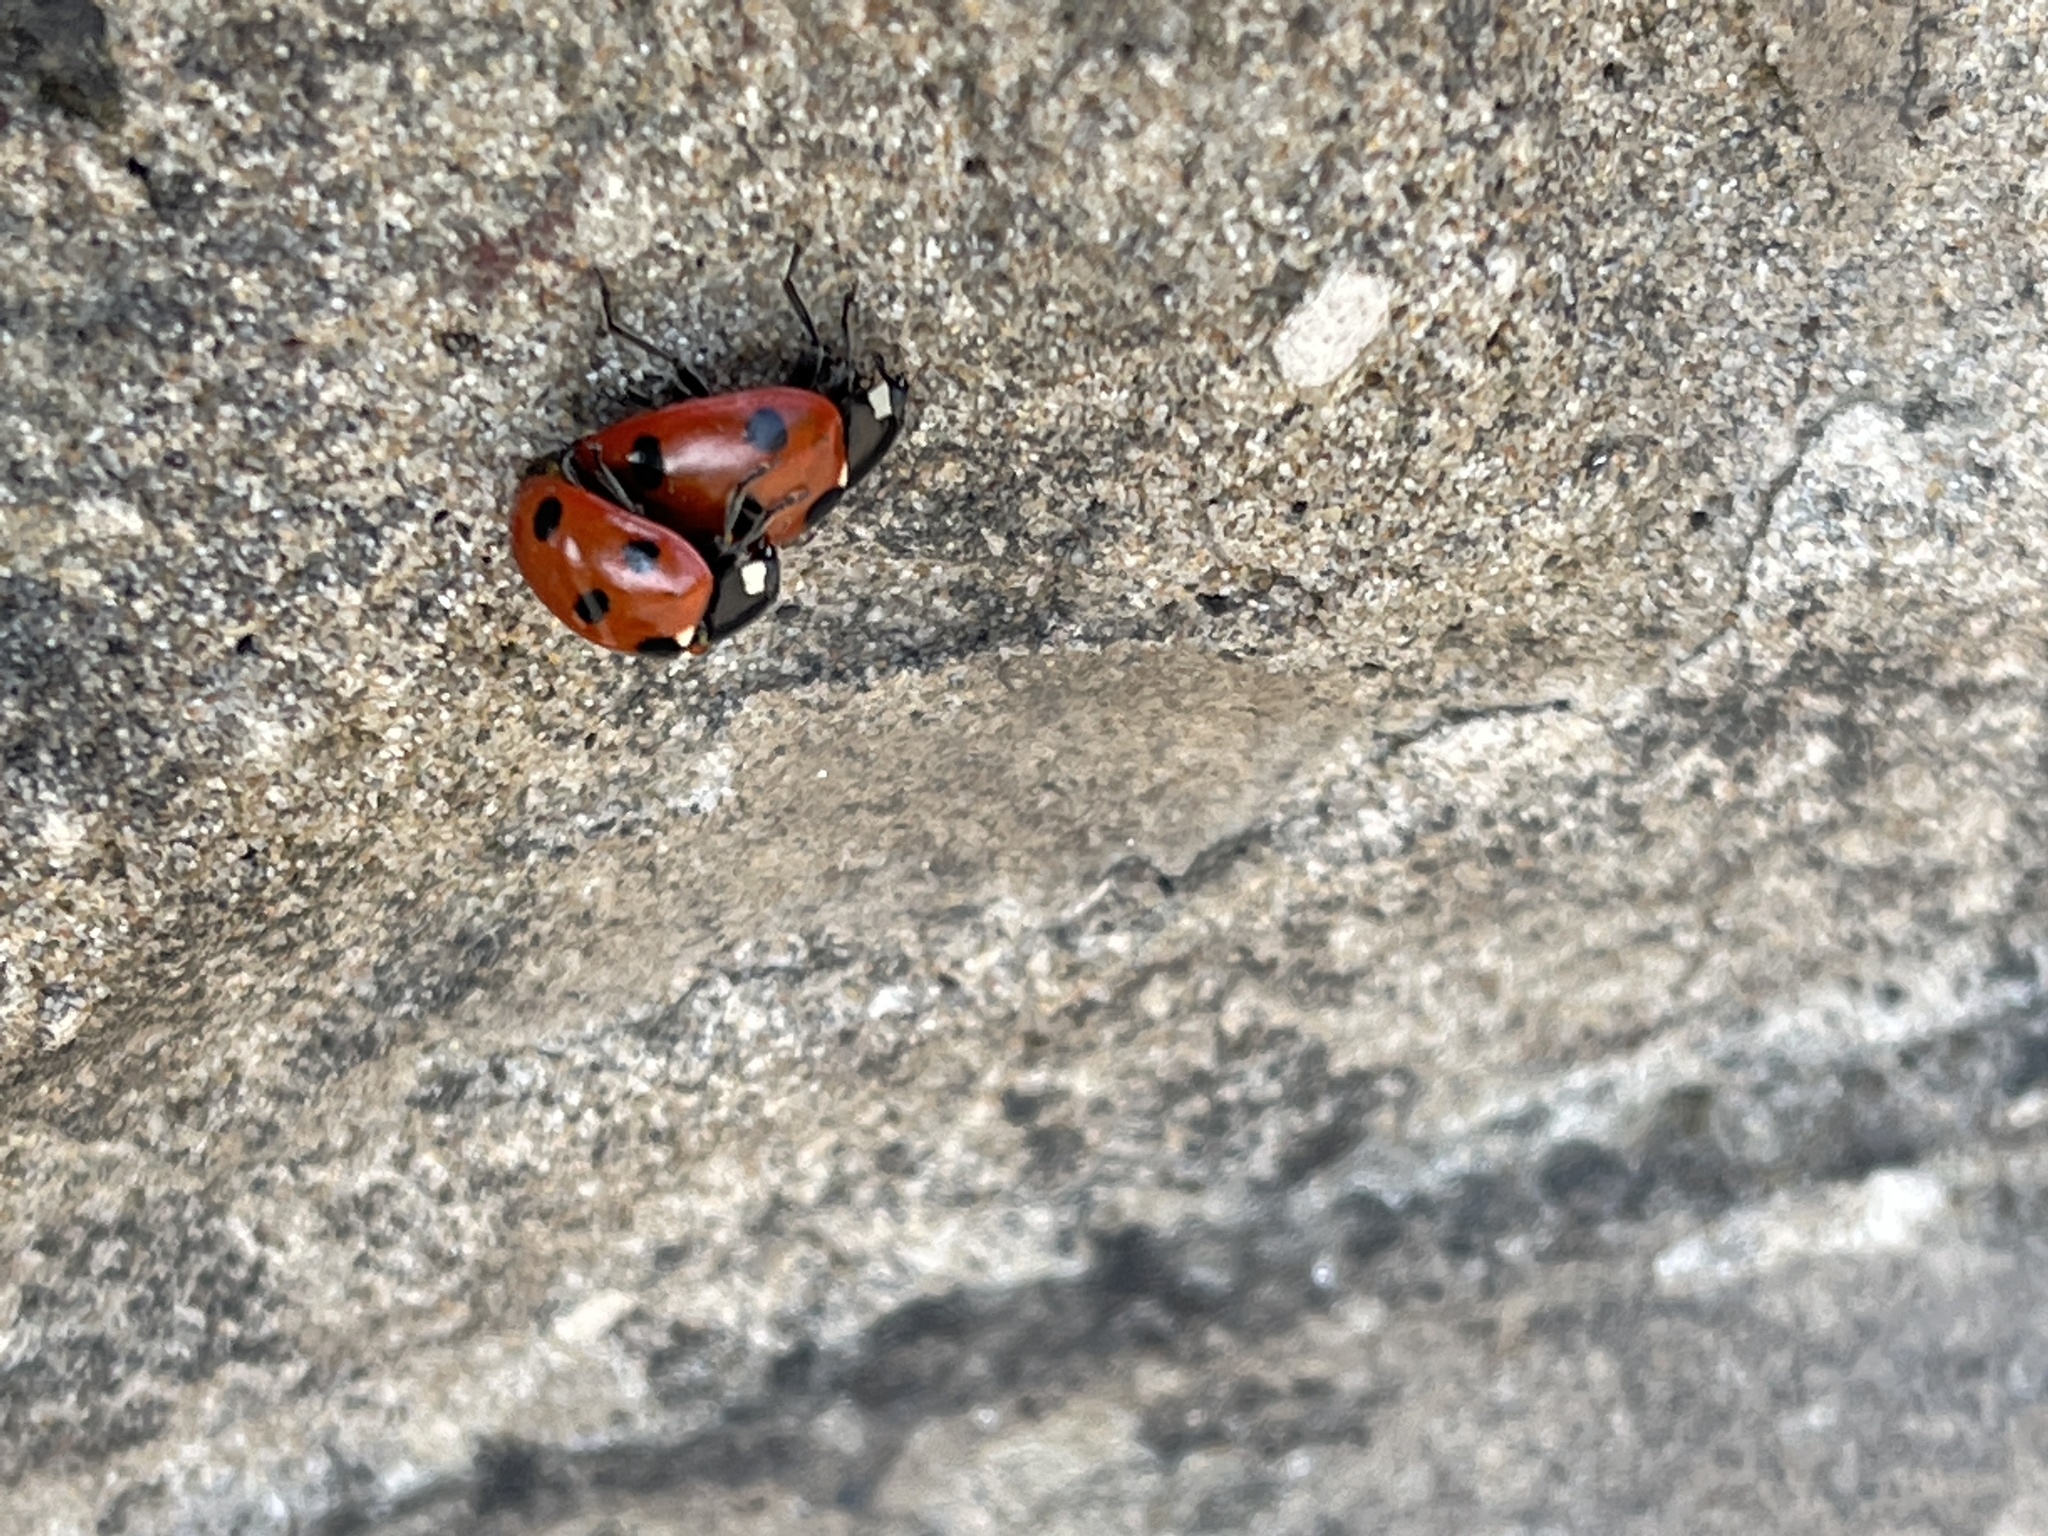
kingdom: Animalia
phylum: Arthropoda
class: Insecta
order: Coleoptera
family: Coccinellidae
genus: Coccinella
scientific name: Coccinella septempunctata
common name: Sevenspotted lady beetle
